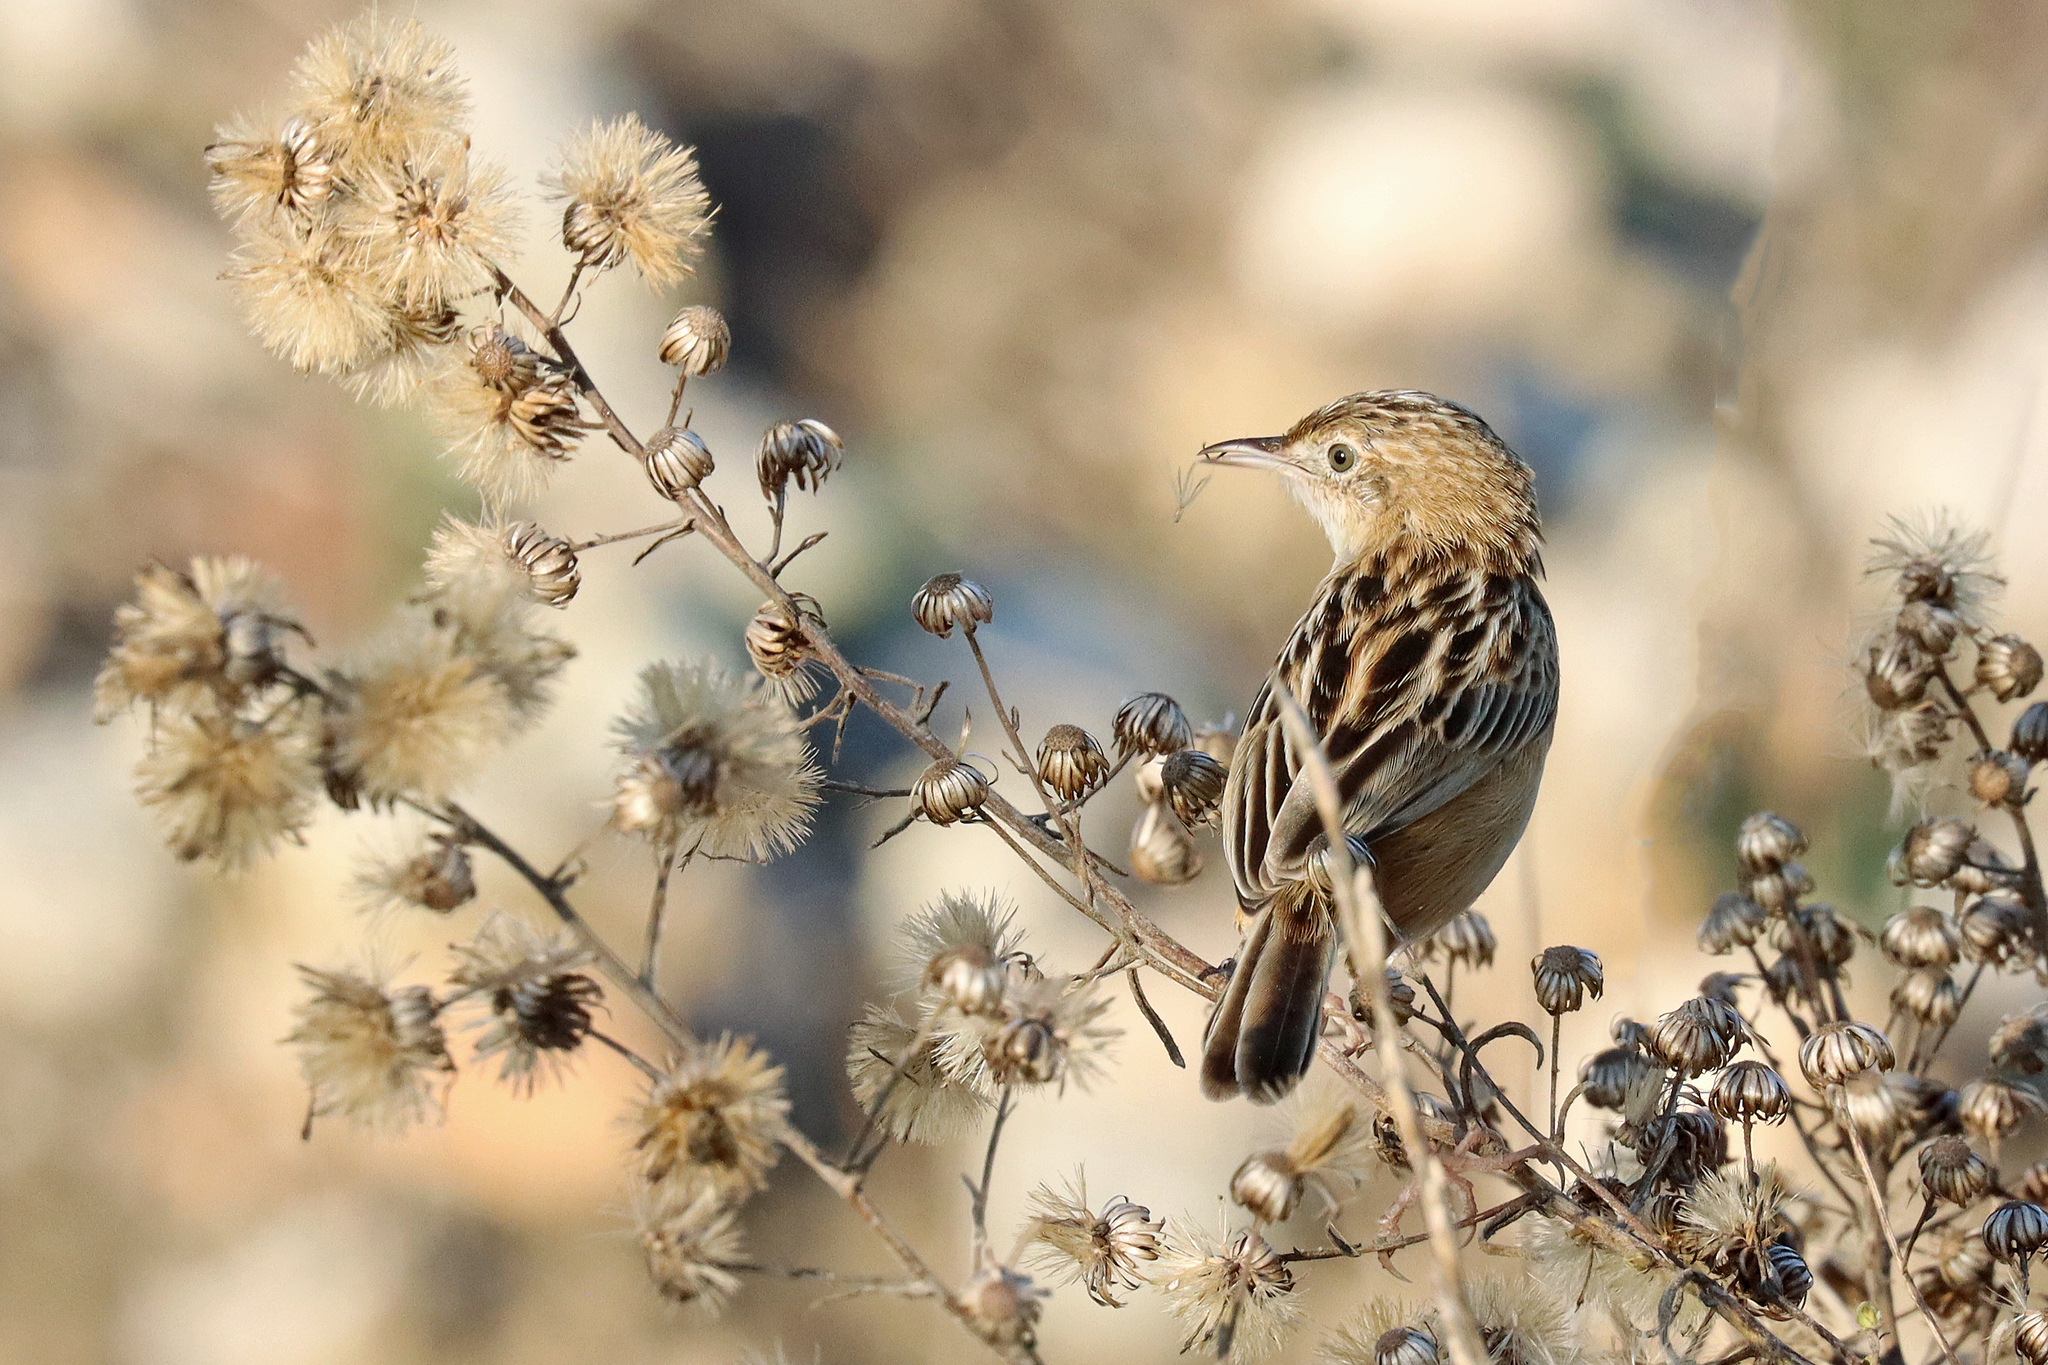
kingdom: Animalia
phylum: Chordata
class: Aves
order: Passeriformes
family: Cisticolidae
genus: Cisticola
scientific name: Cisticola juncidis
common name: Zitting cisticola
